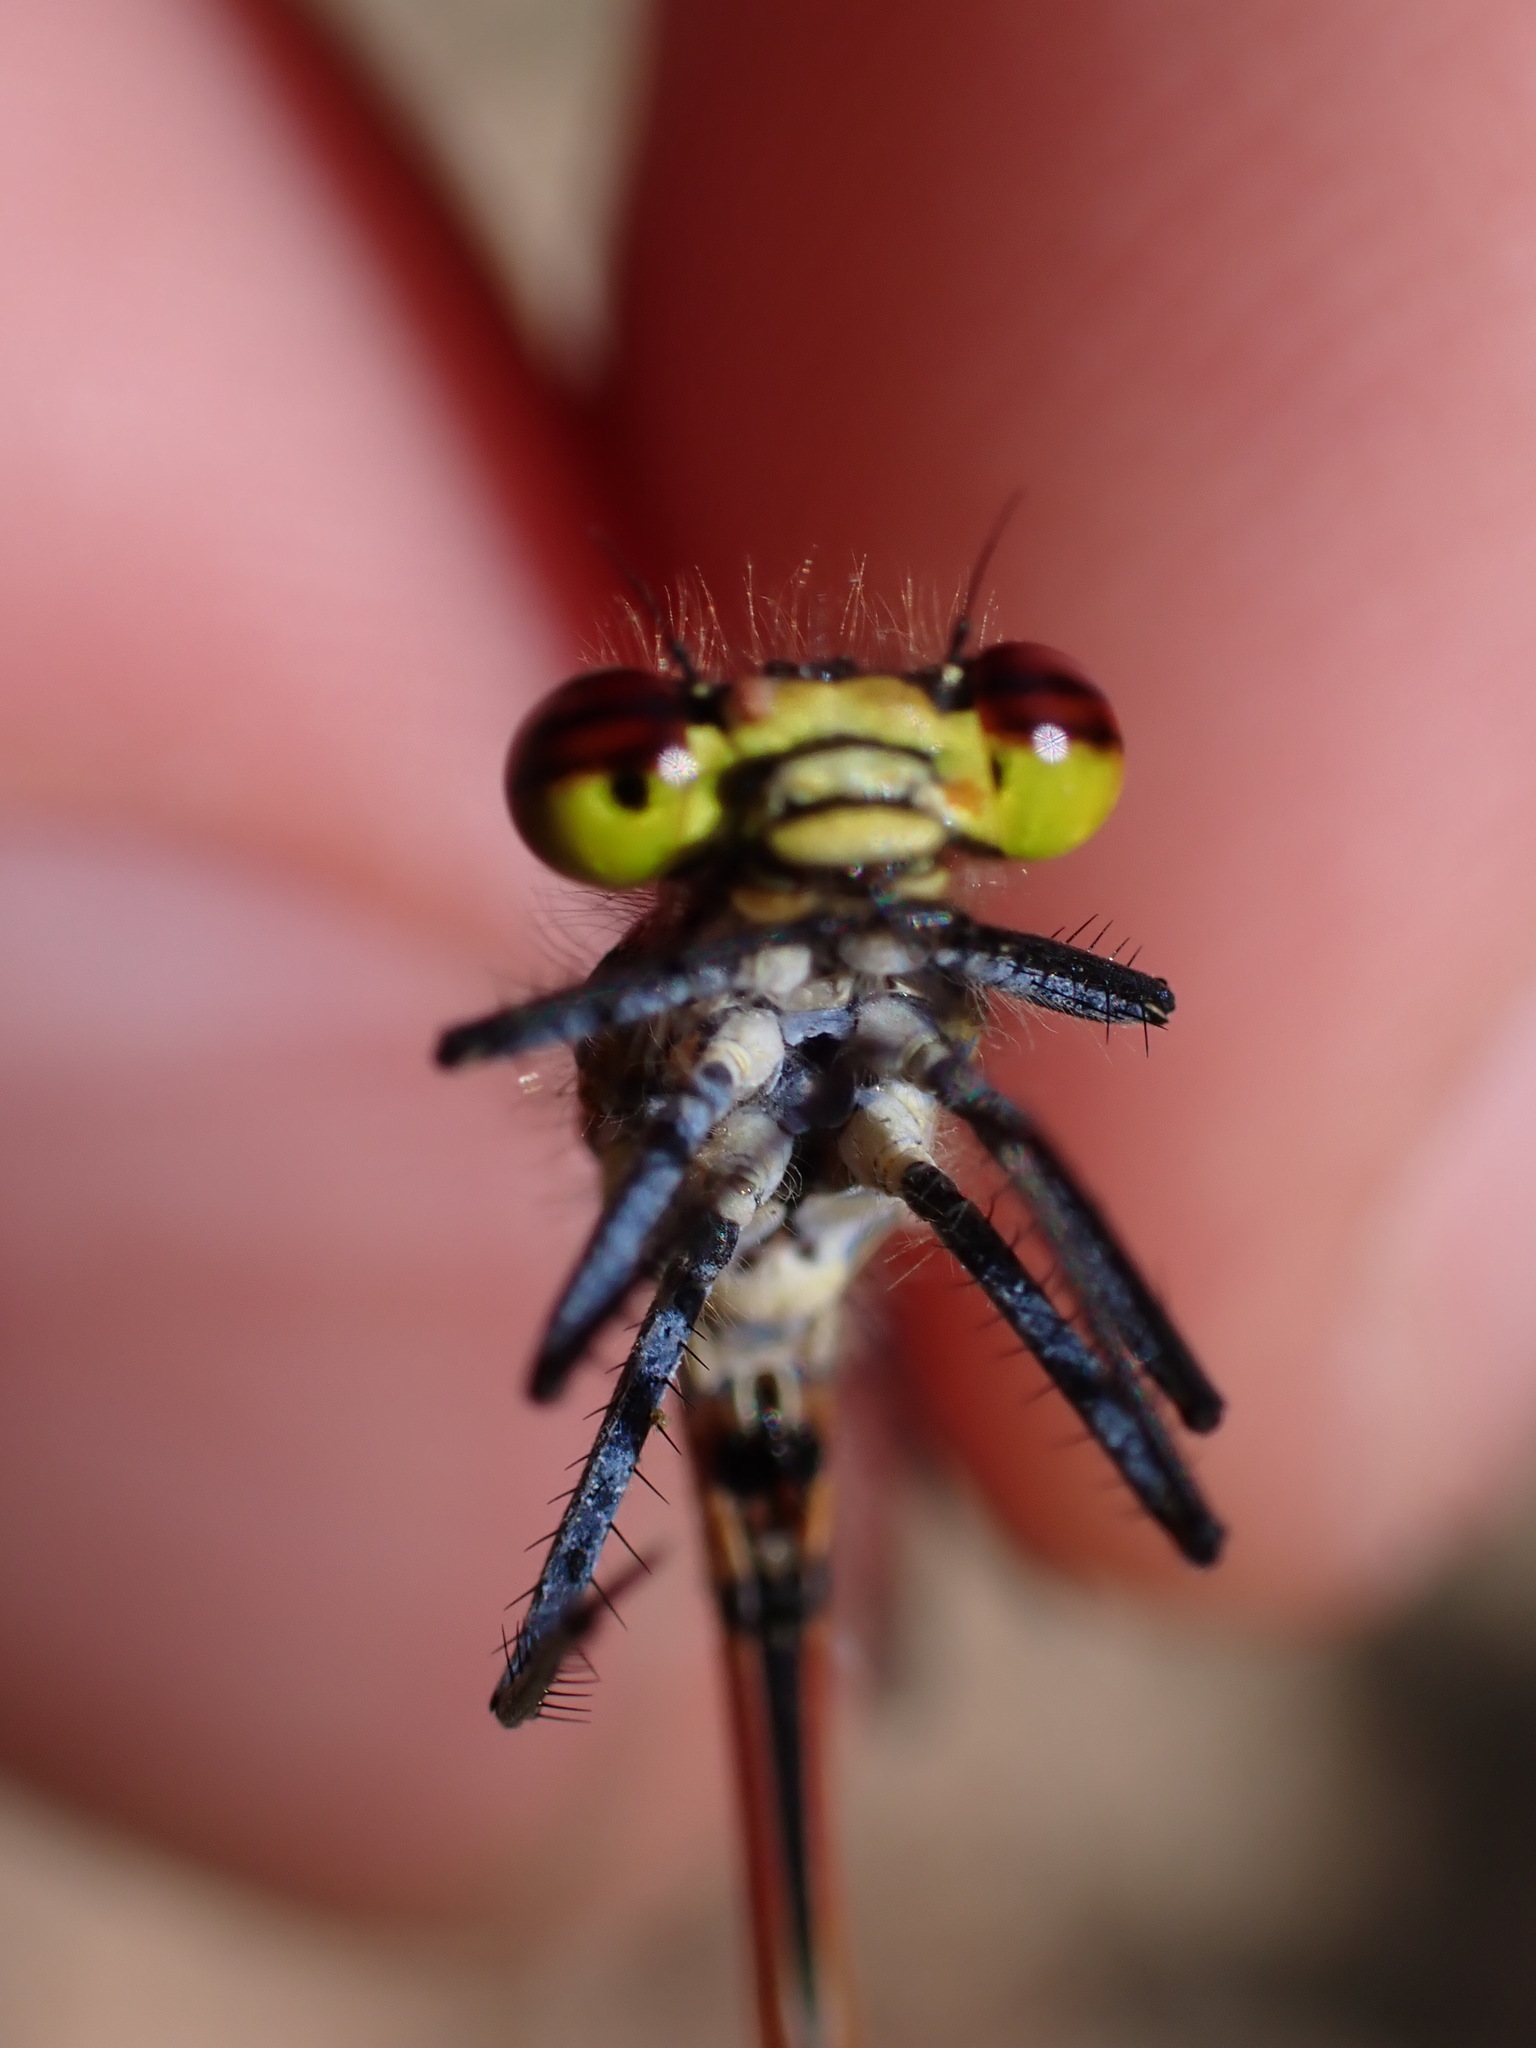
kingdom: Animalia
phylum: Arthropoda
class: Insecta
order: Odonata
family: Coenagrionidae
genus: Pyrrhosoma
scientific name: Pyrrhosoma nymphula
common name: Large red damsel
